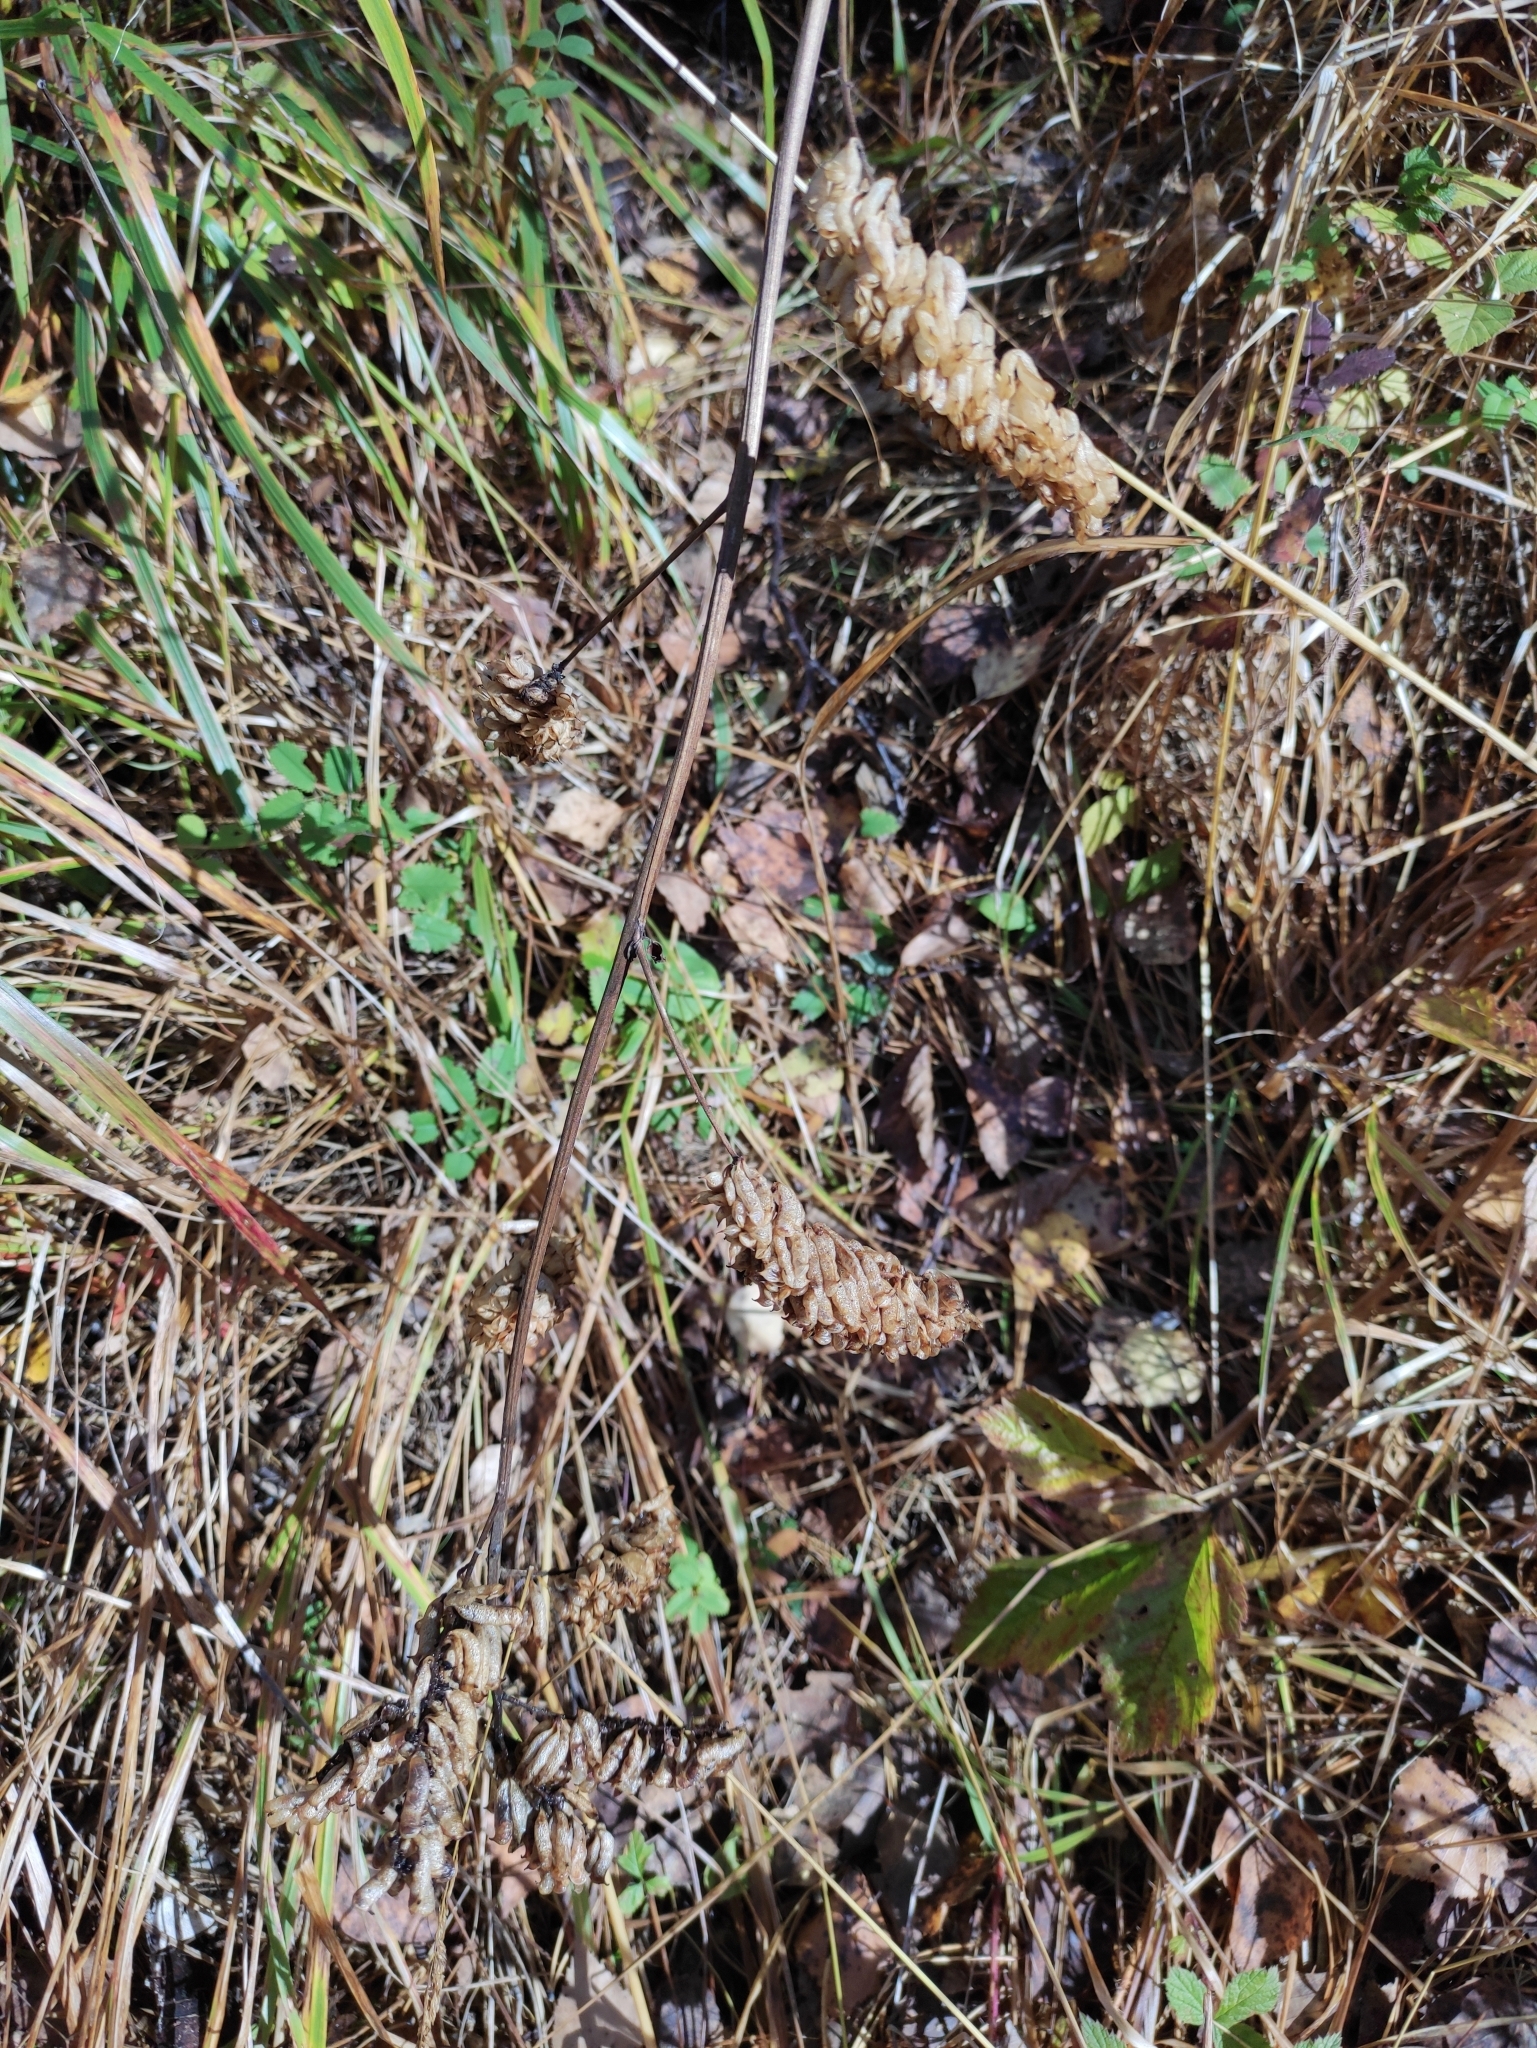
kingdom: Plantae
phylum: Tracheophyta
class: Magnoliopsida
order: Ranunculales
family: Ranunculaceae
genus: Actaea
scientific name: Actaea cimicifuga
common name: Chinese cimicifuga
